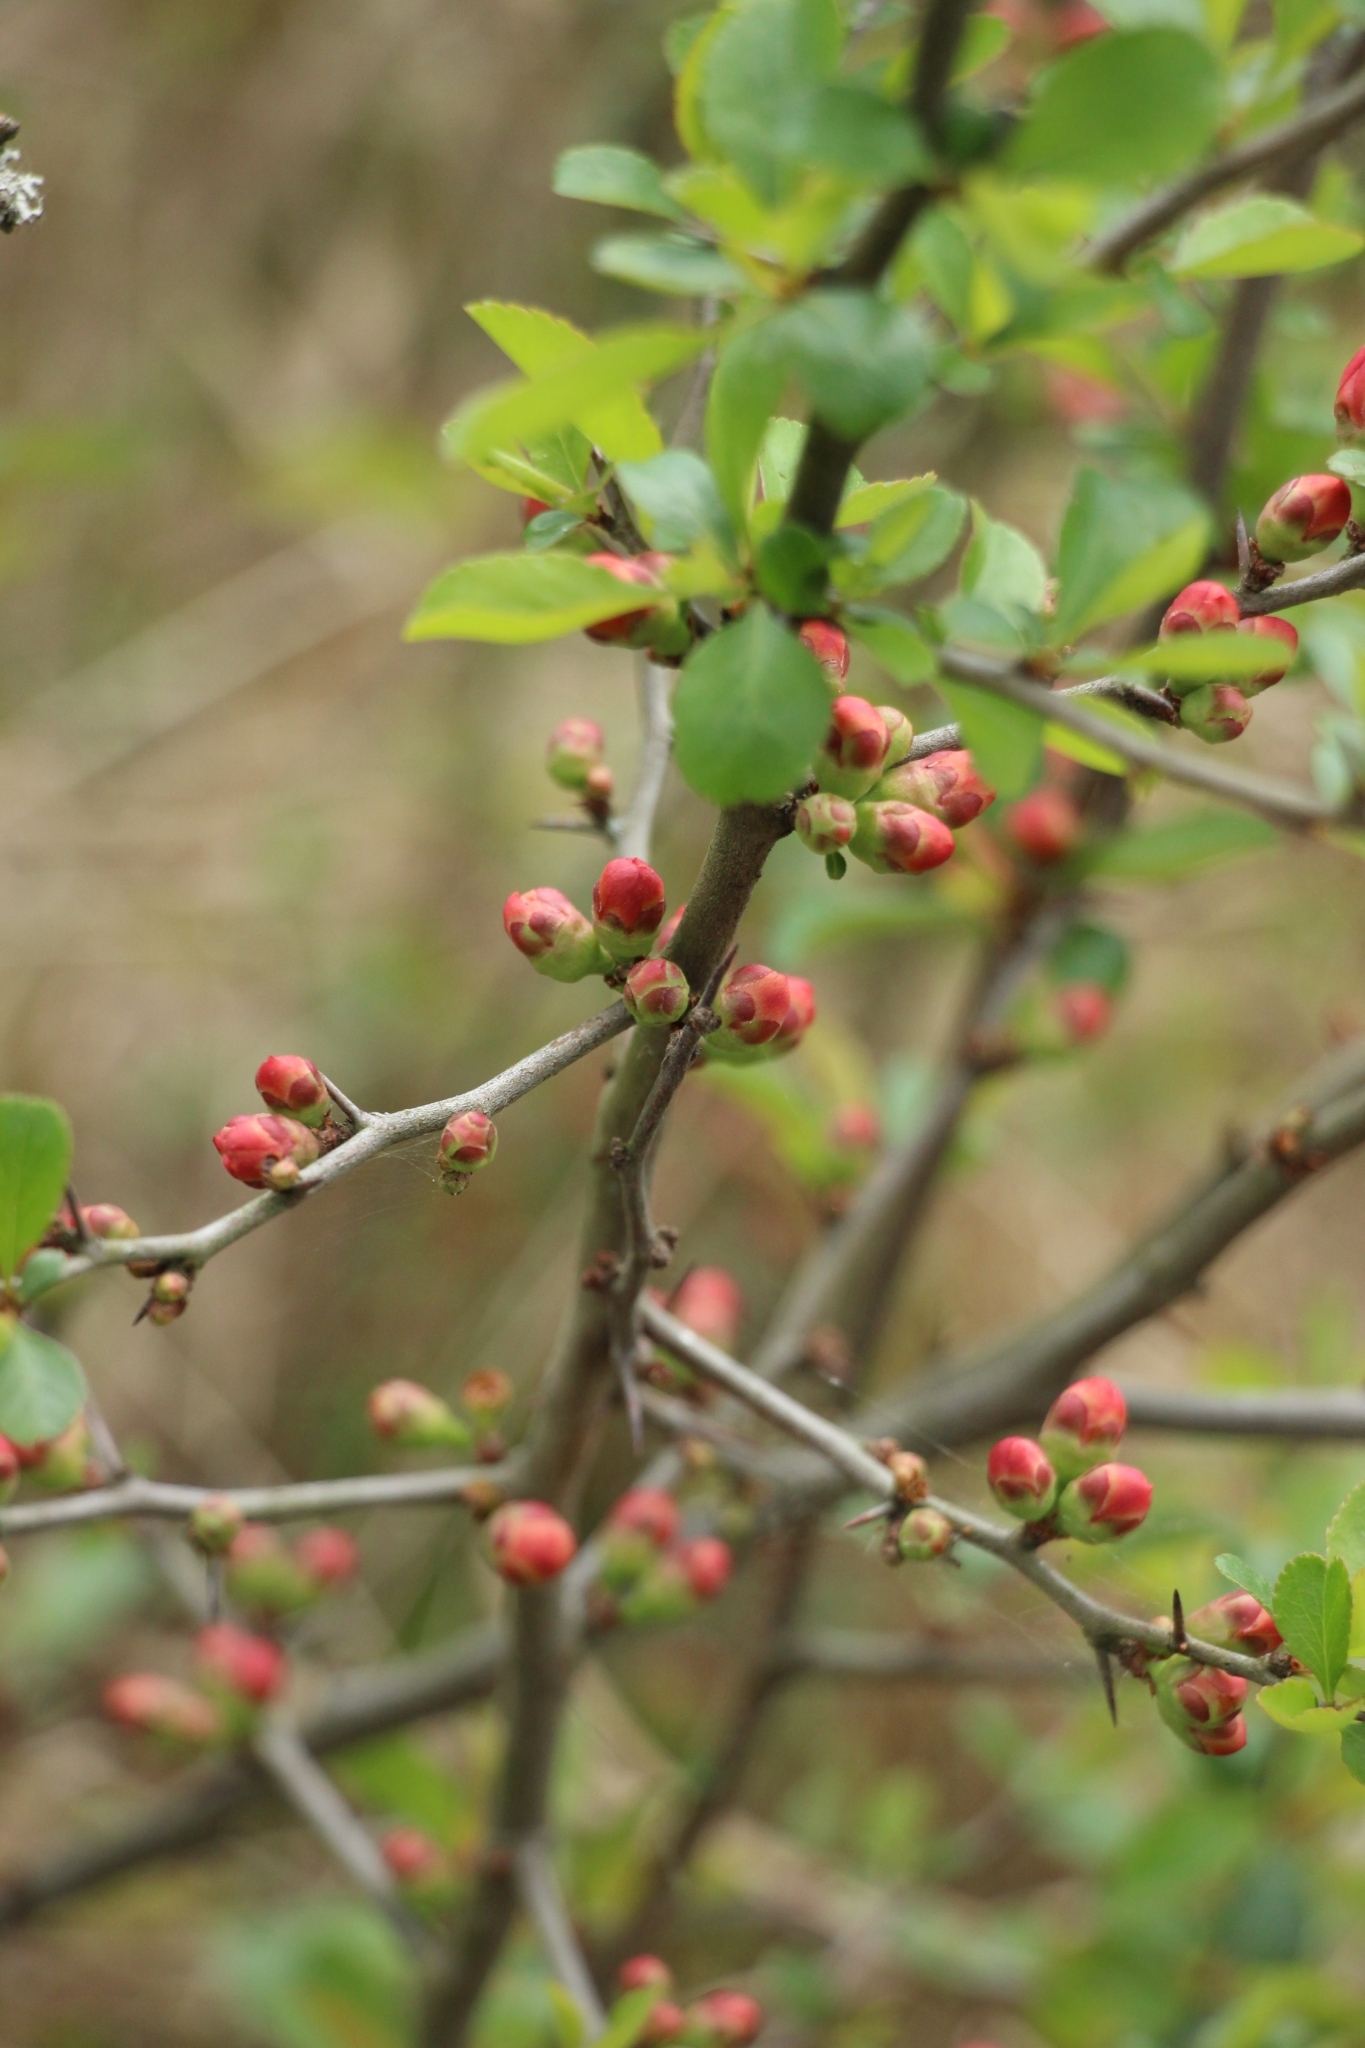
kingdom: Plantae
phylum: Tracheophyta
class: Magnoliopsida
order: Rosales
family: Rosaceae
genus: Chaenomeles
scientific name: Chaenomeles japonica
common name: Japanese quince
